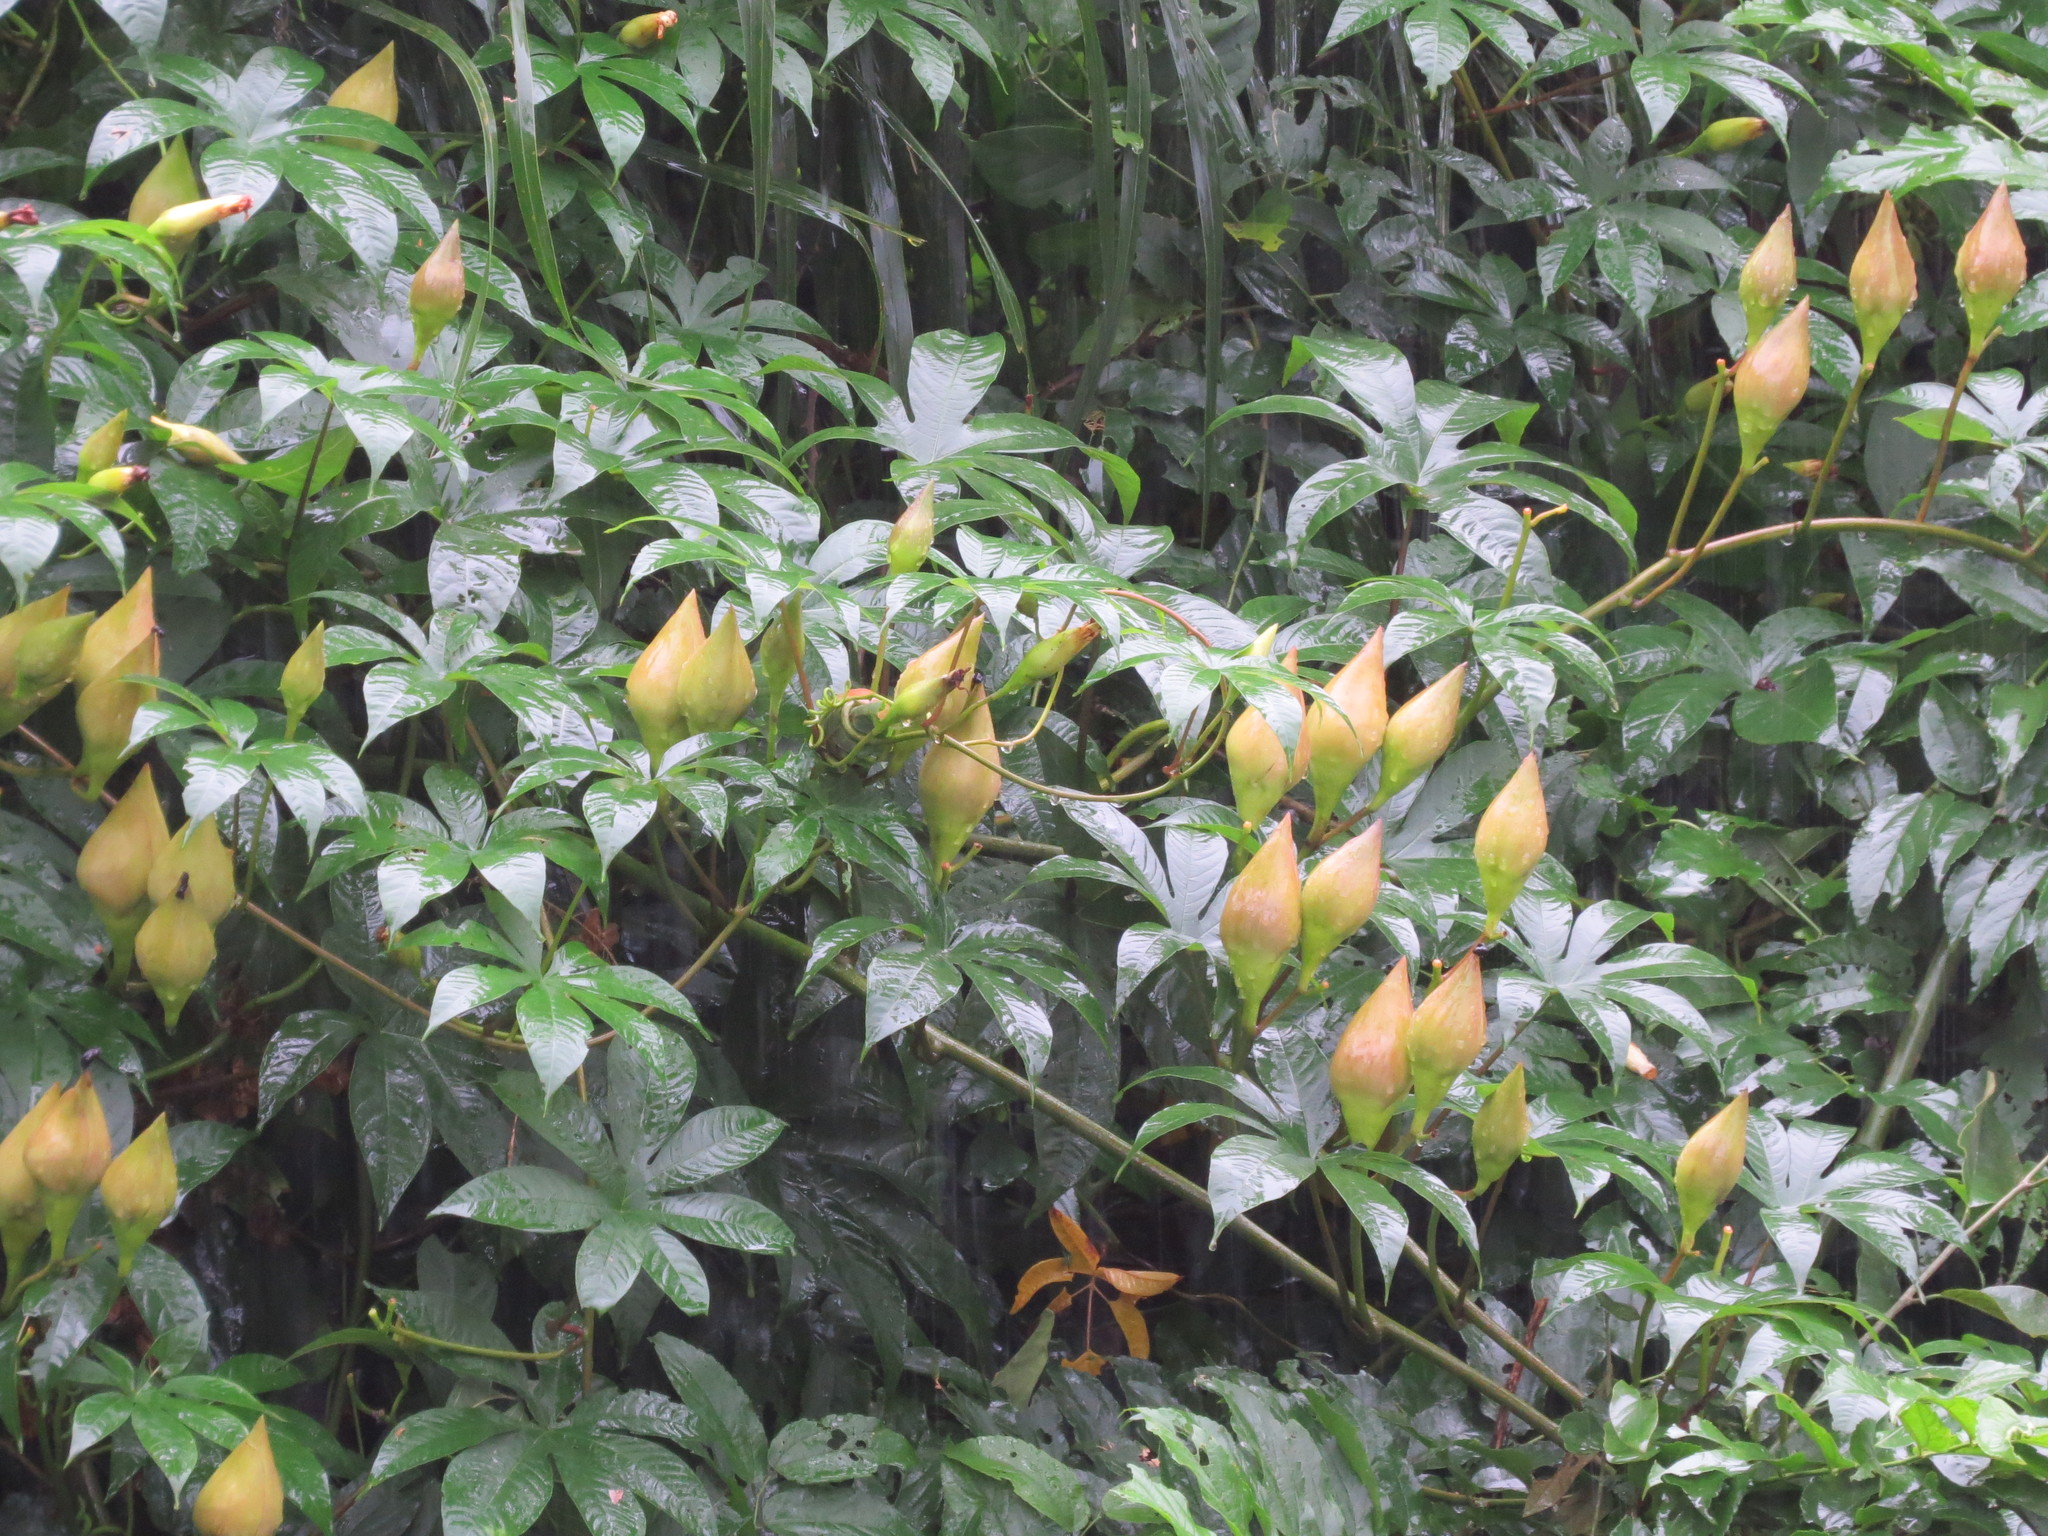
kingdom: Plantae
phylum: Tracheophyta
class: Magnoliopsida
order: Solanales
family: Convolvulaceae
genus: Distimake
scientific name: Distimake tuberosus
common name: Spanish arborvine
